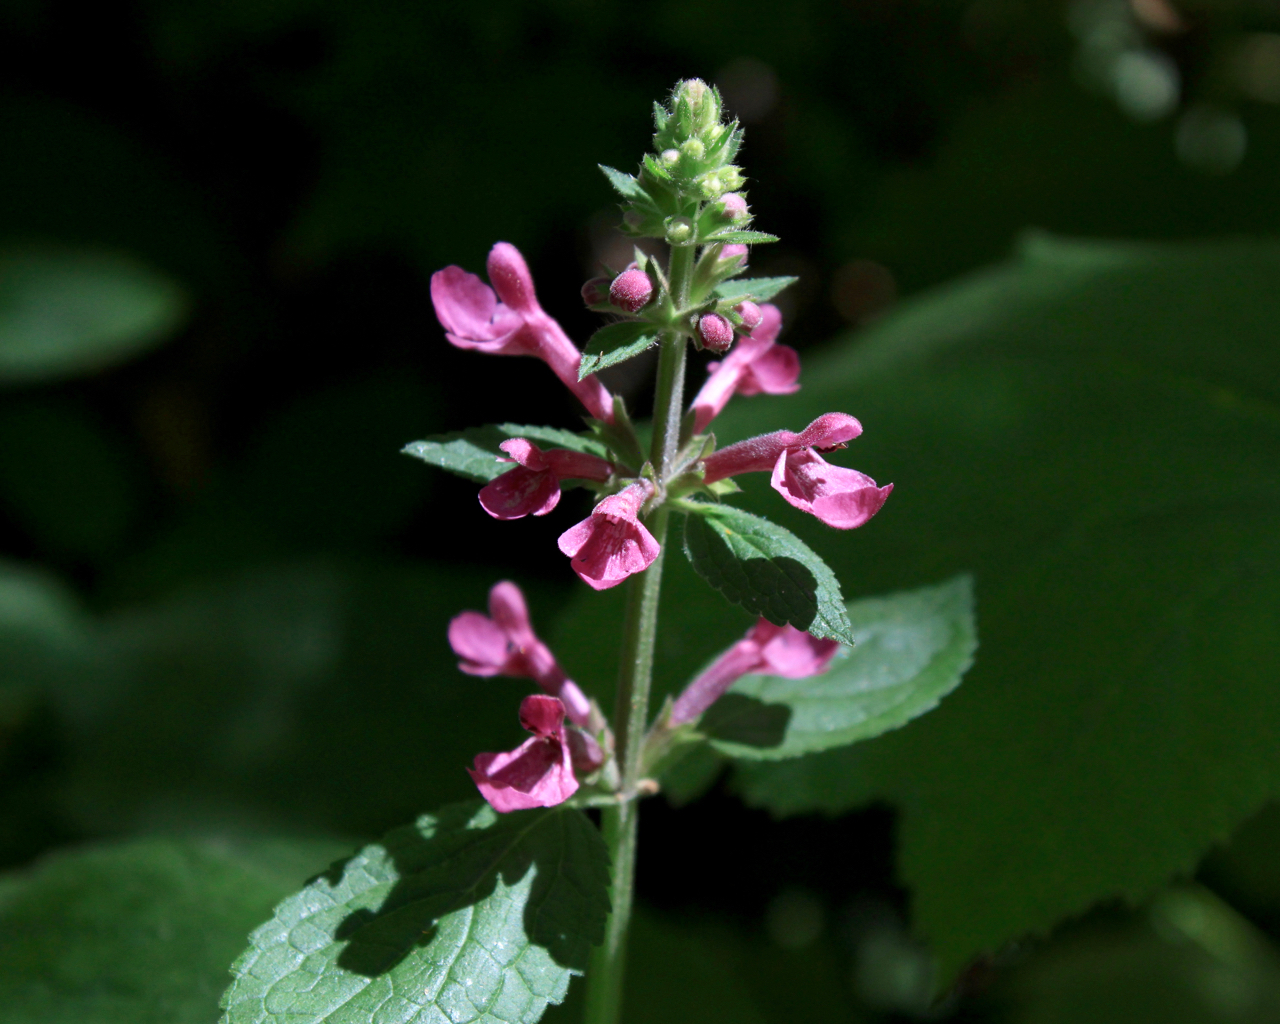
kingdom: Plantae
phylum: Tracheophyta
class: Magnoliopsida
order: Lamiales
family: Lamiaceae
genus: Stachys
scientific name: Stachys chamissonis
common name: Coastal hedge-nettle
